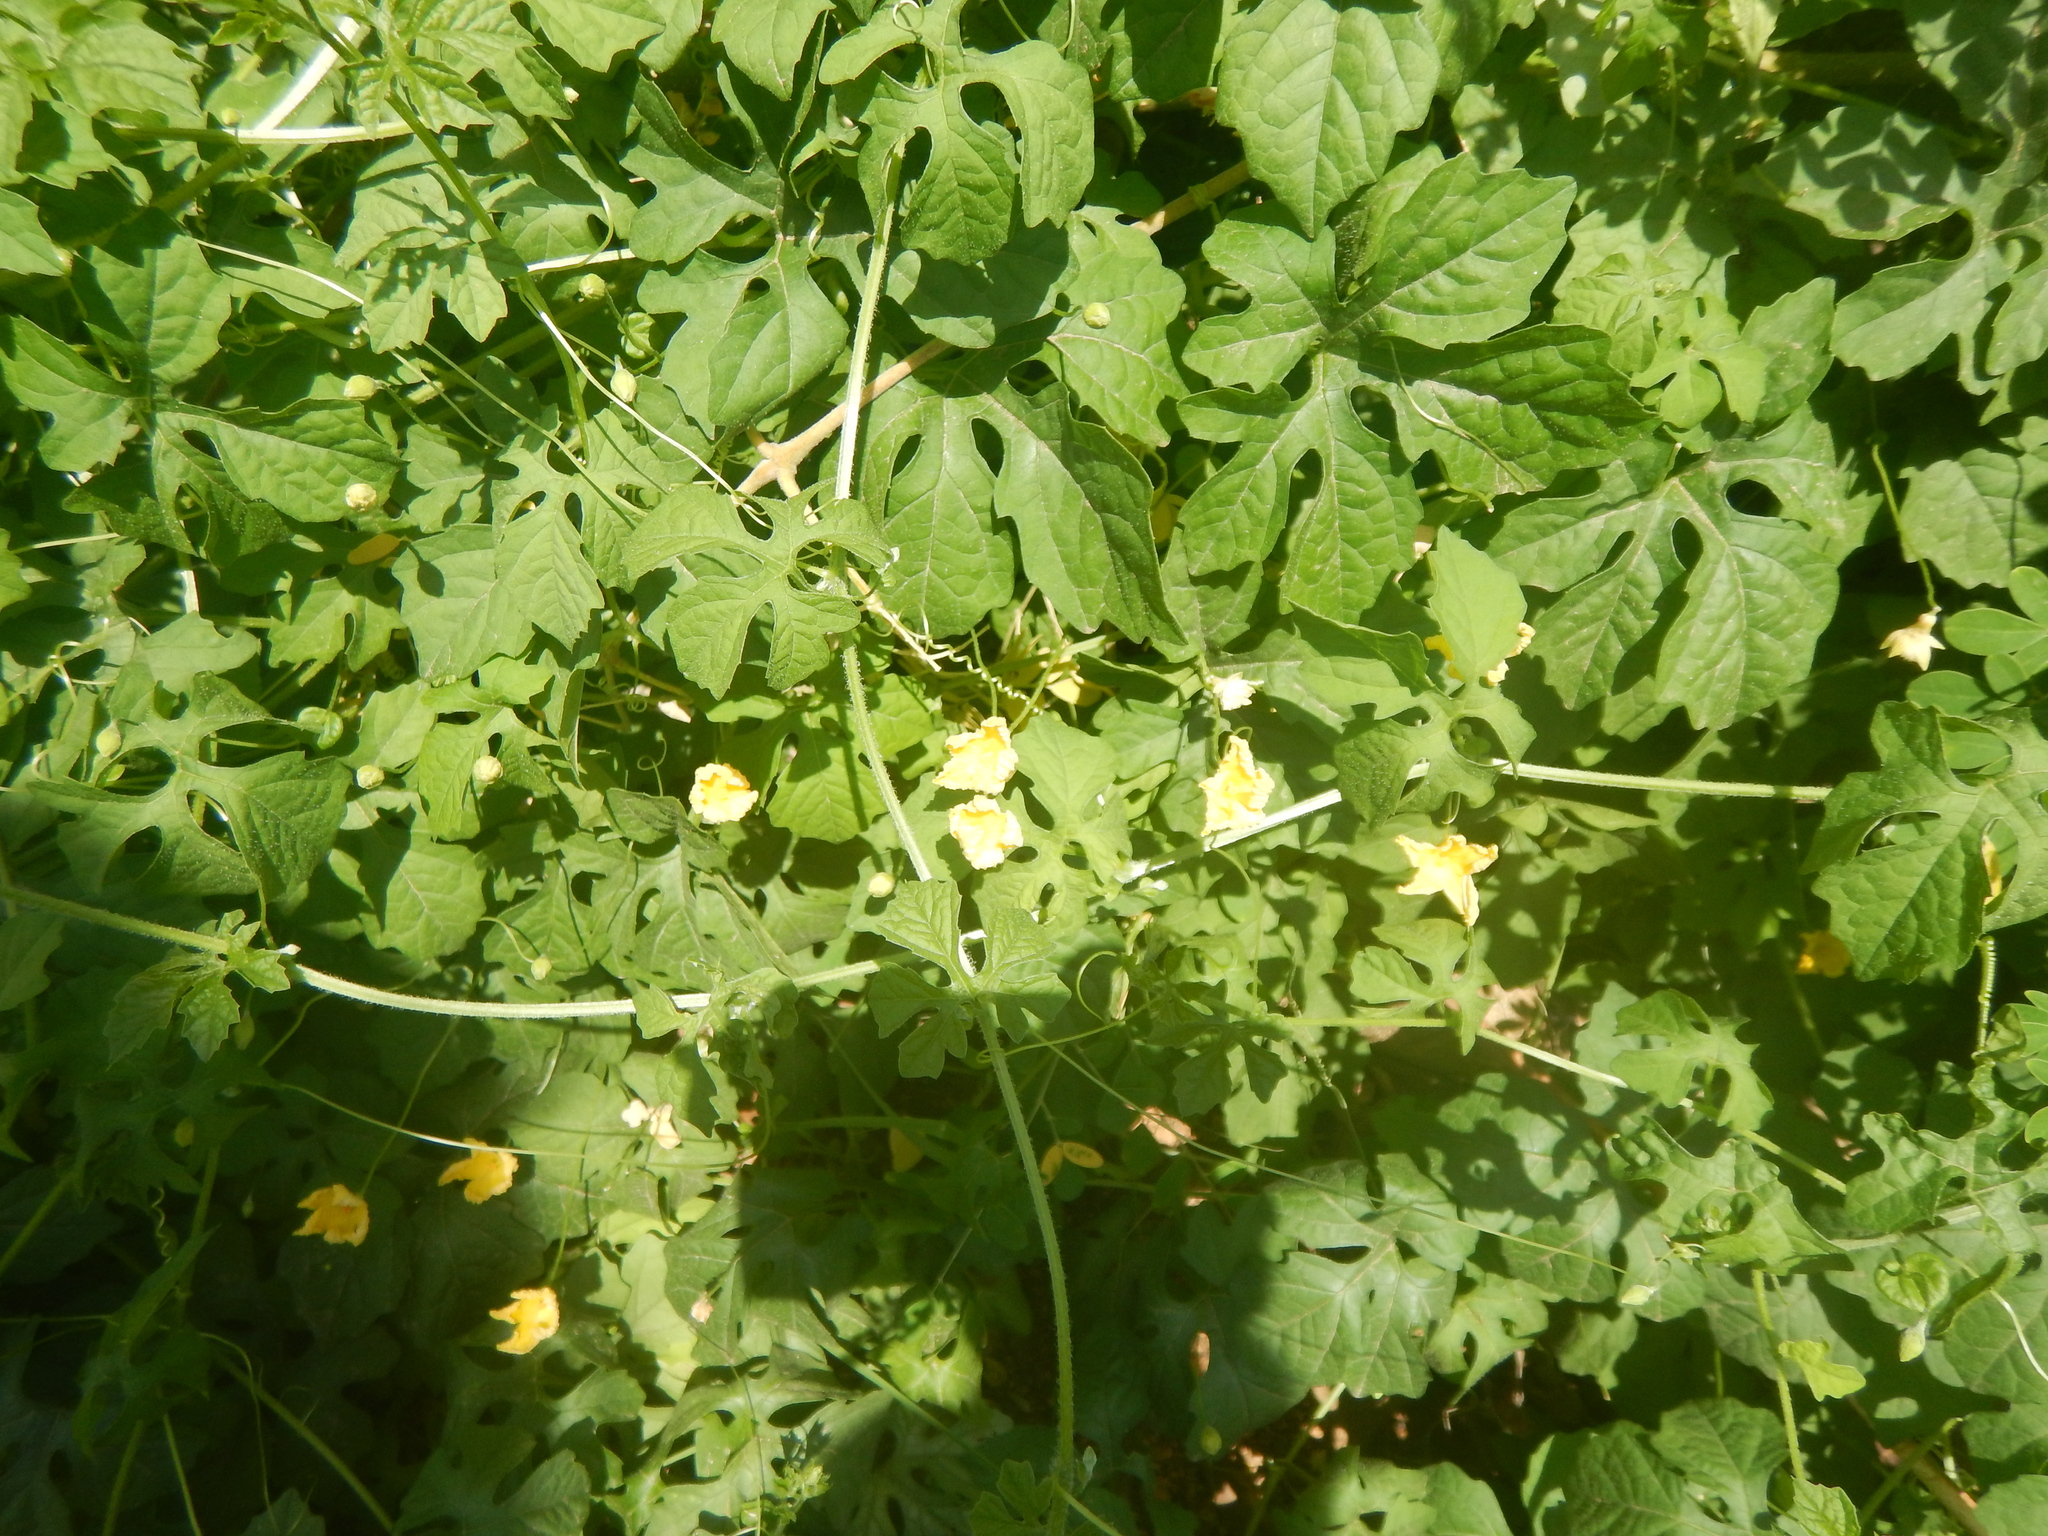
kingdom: Plantae
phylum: Tracheophyta
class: Magnoliopsida
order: Cucurbitales
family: Cucurbitaceae
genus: Momordica
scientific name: Momordica charantia
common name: Balsampear
